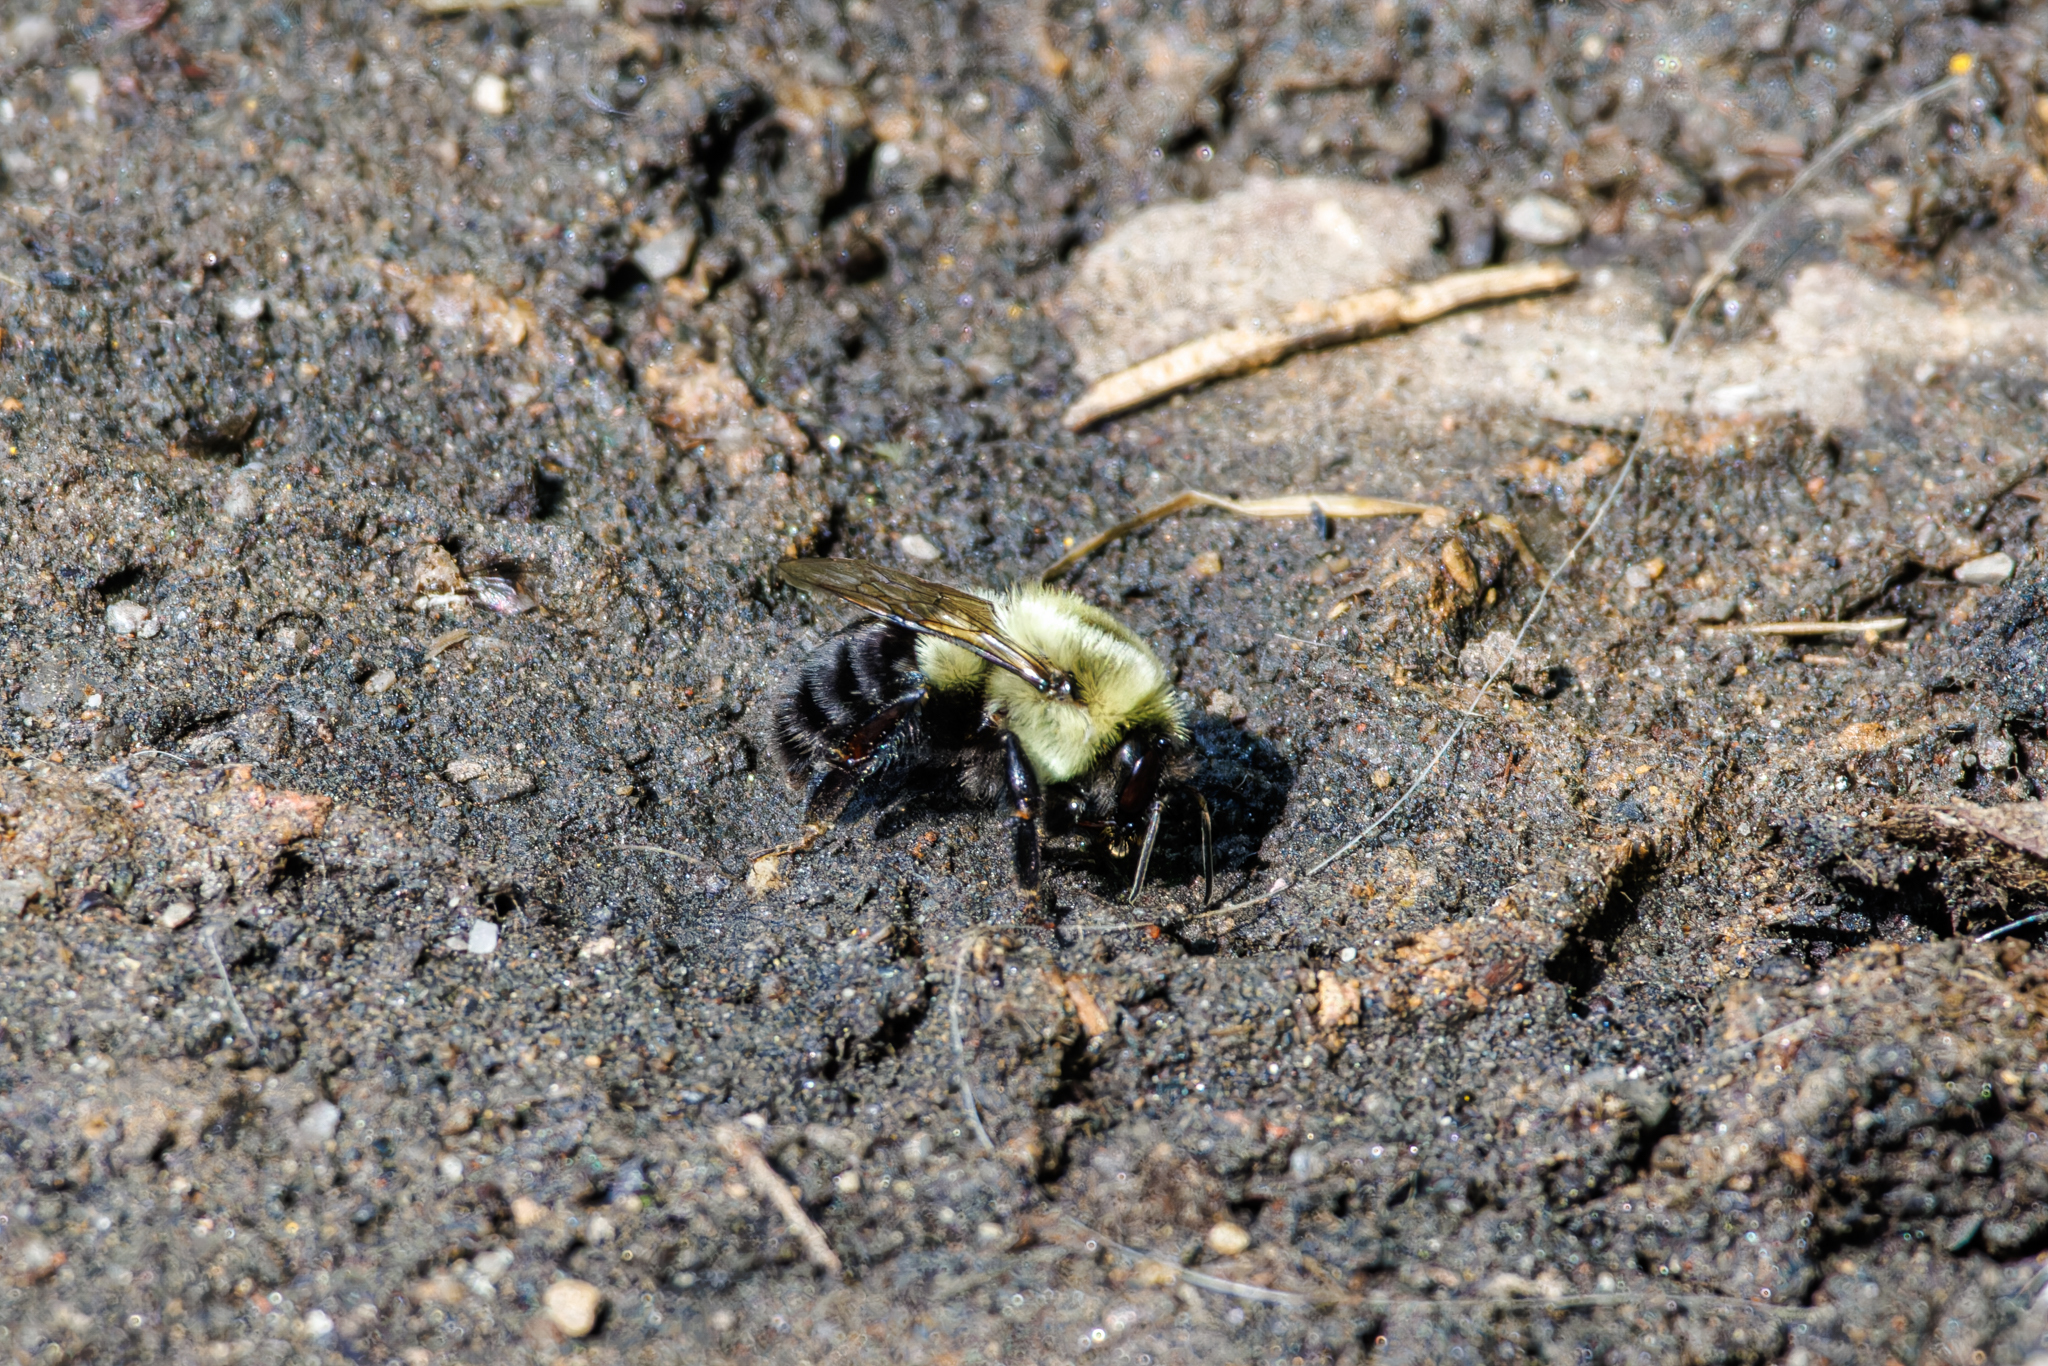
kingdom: Animalia
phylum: Arthropoda
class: Insecta
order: Hymenoptera
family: Apidae
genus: Bombus
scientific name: Bombus impatiens
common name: Common eastern bumble bee
